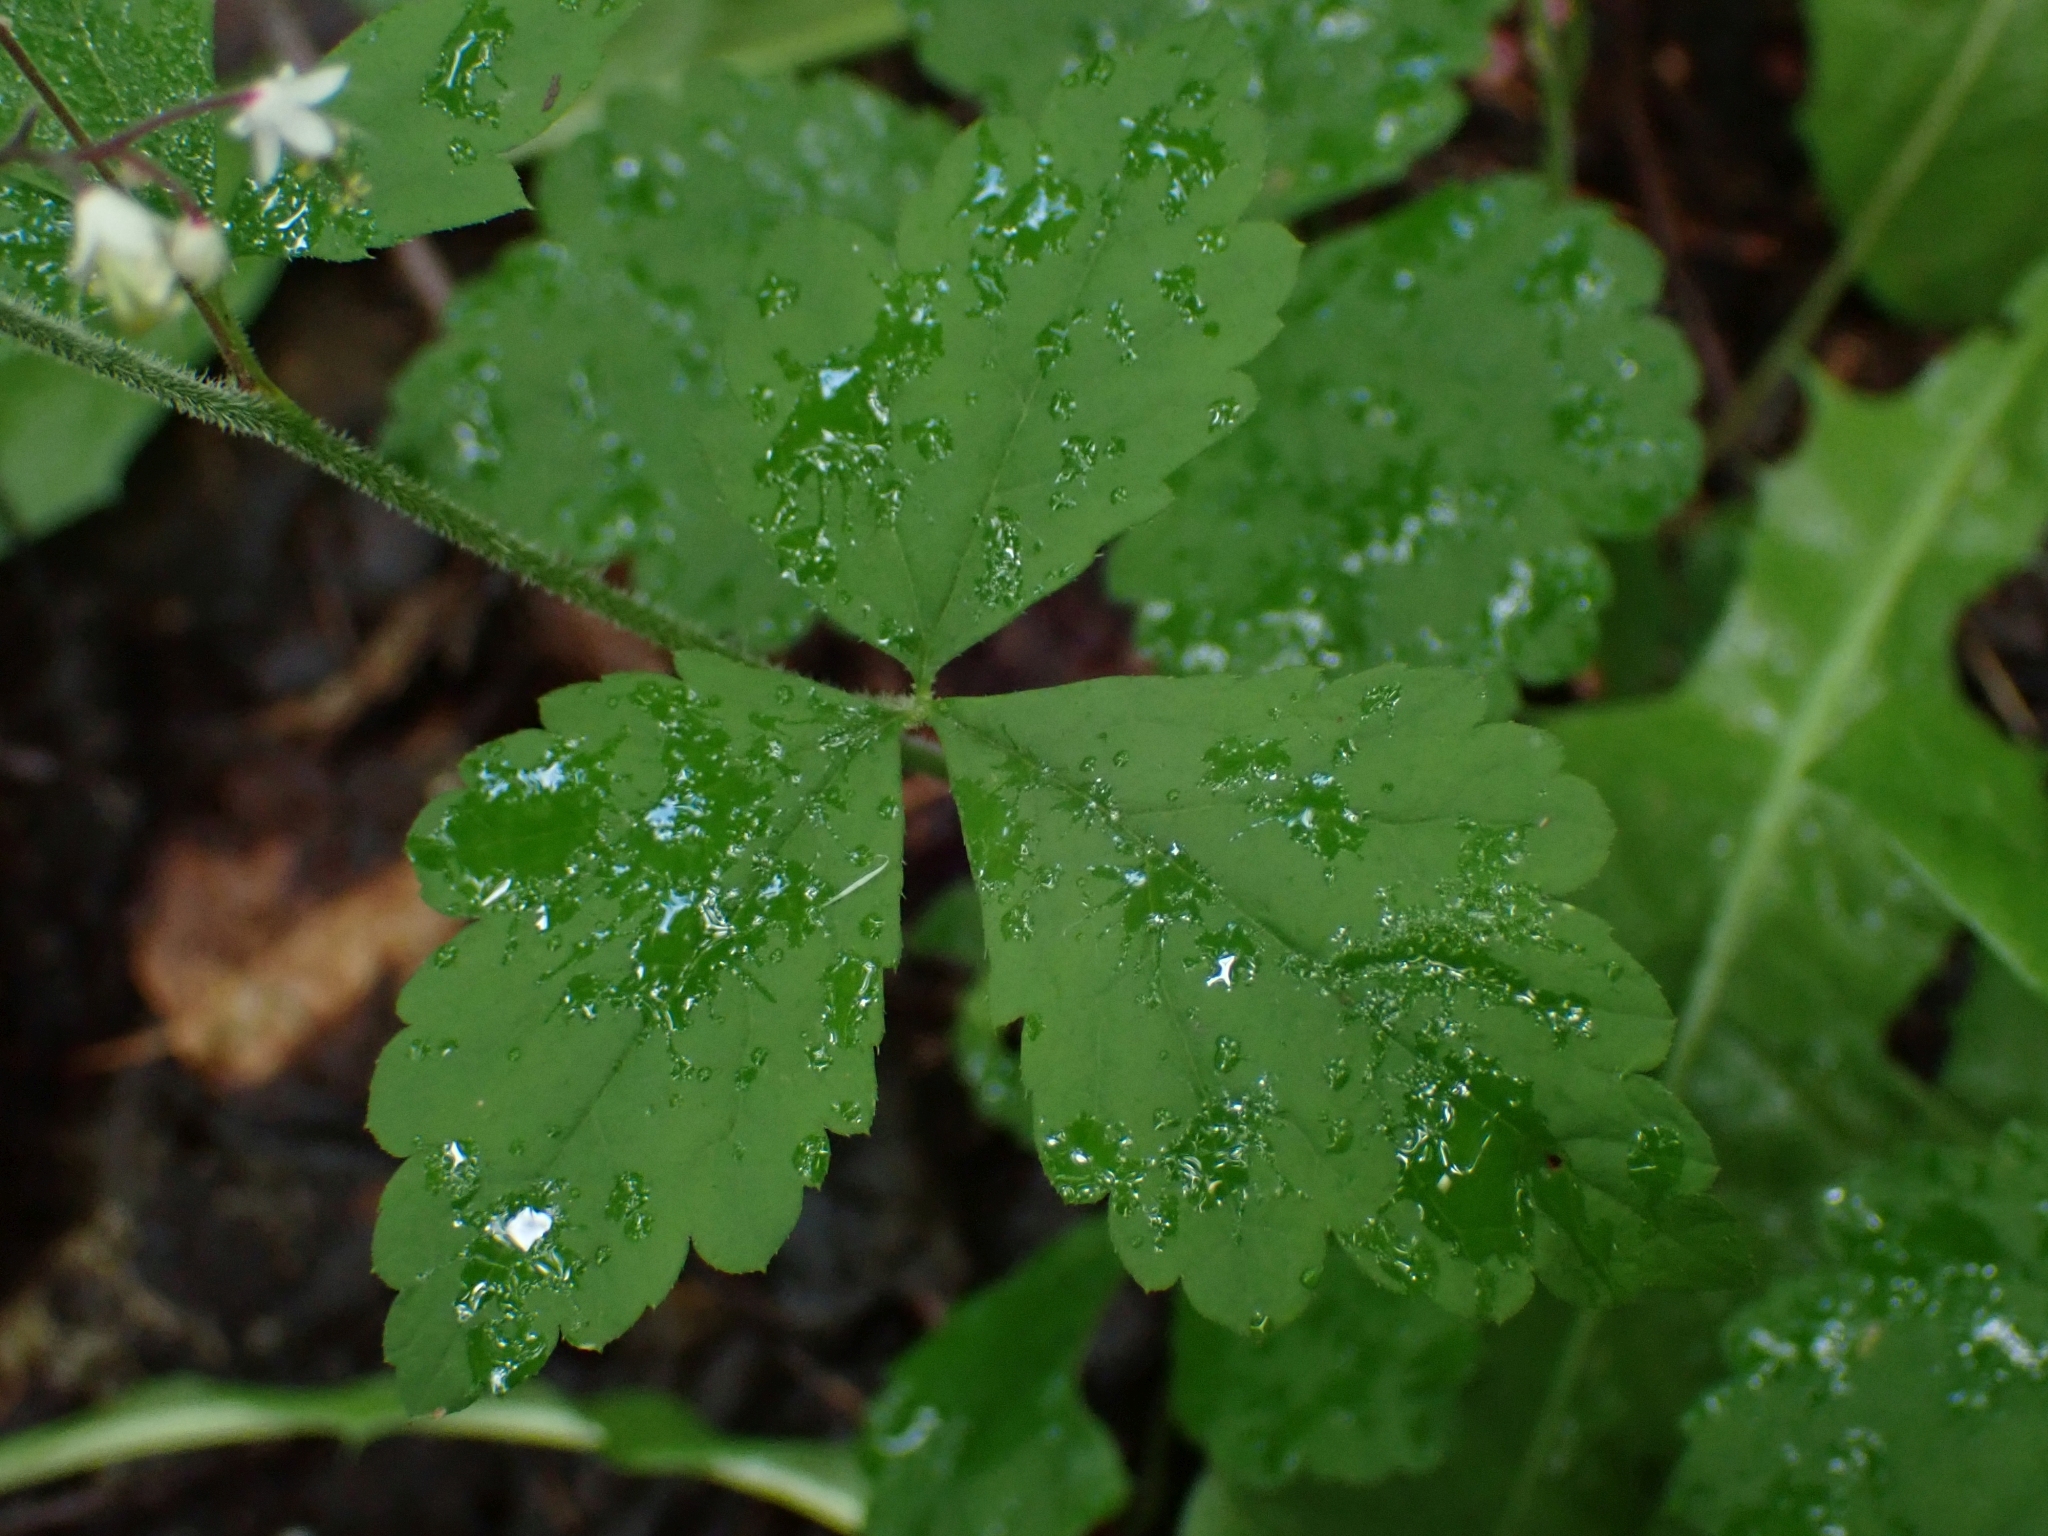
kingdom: Plantae
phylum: Tracheophyta
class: Magnoliopsida
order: Saxifragales
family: Saxifragaceae
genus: Tiarella
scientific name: Tiarella trifoliata
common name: Sugar-scoop
